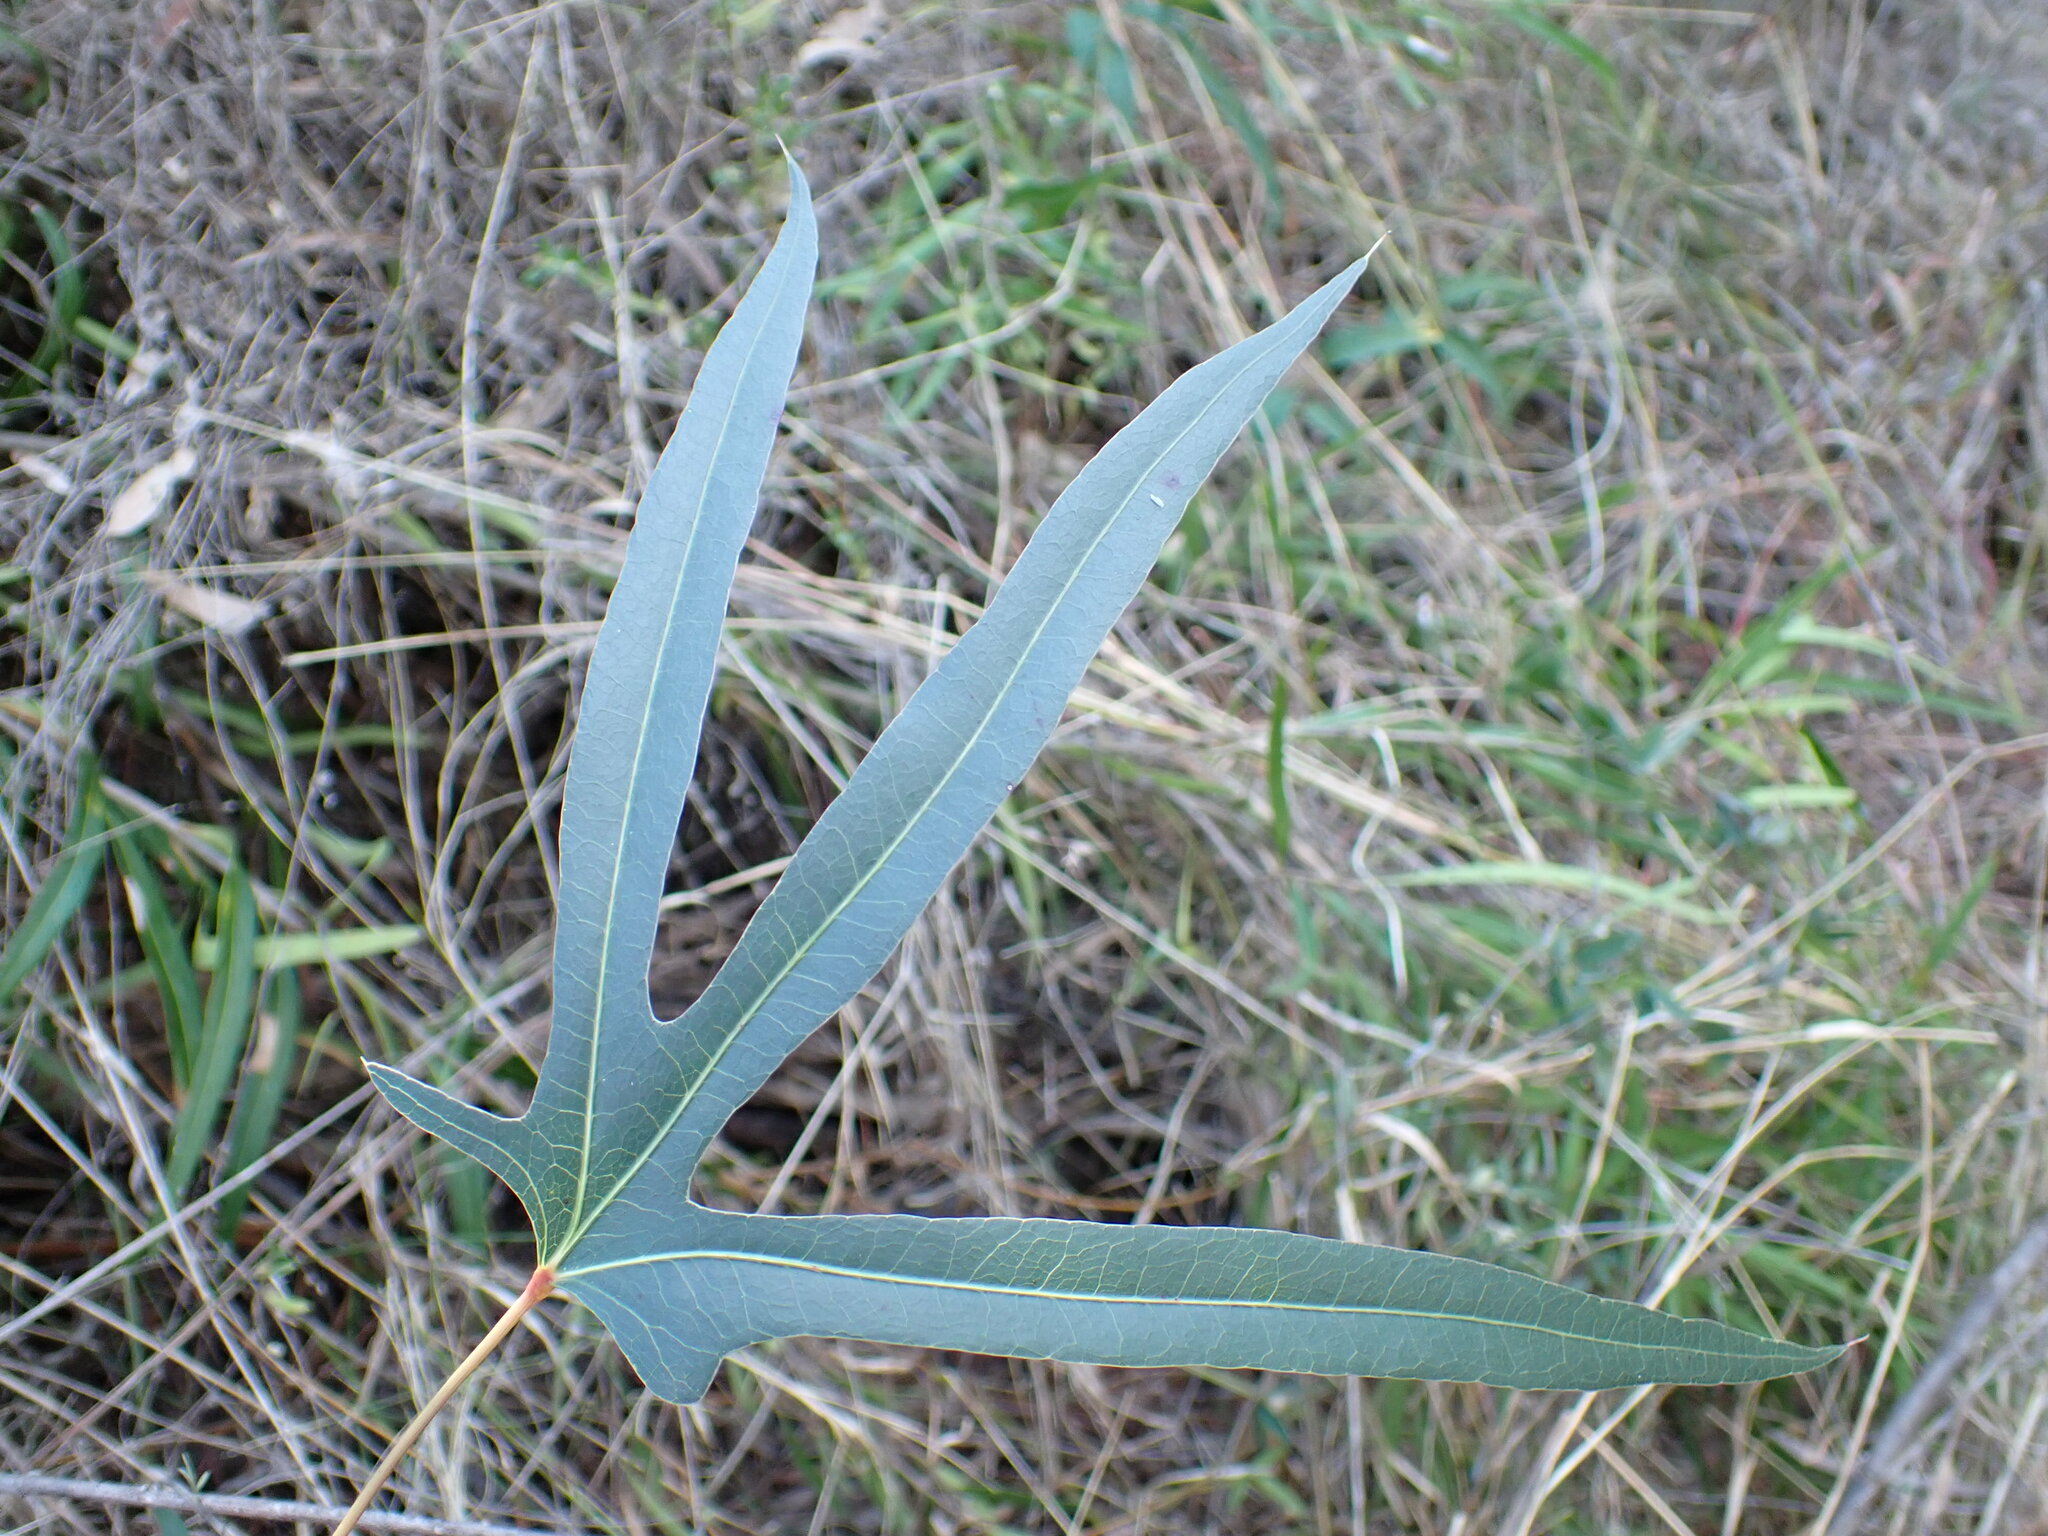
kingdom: Plantae
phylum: Tracheophyta
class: Magnoliopsida
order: Malvales
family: Malvaceae
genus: Brachychiton
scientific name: Brachychiton populneus
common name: Kurrajong
